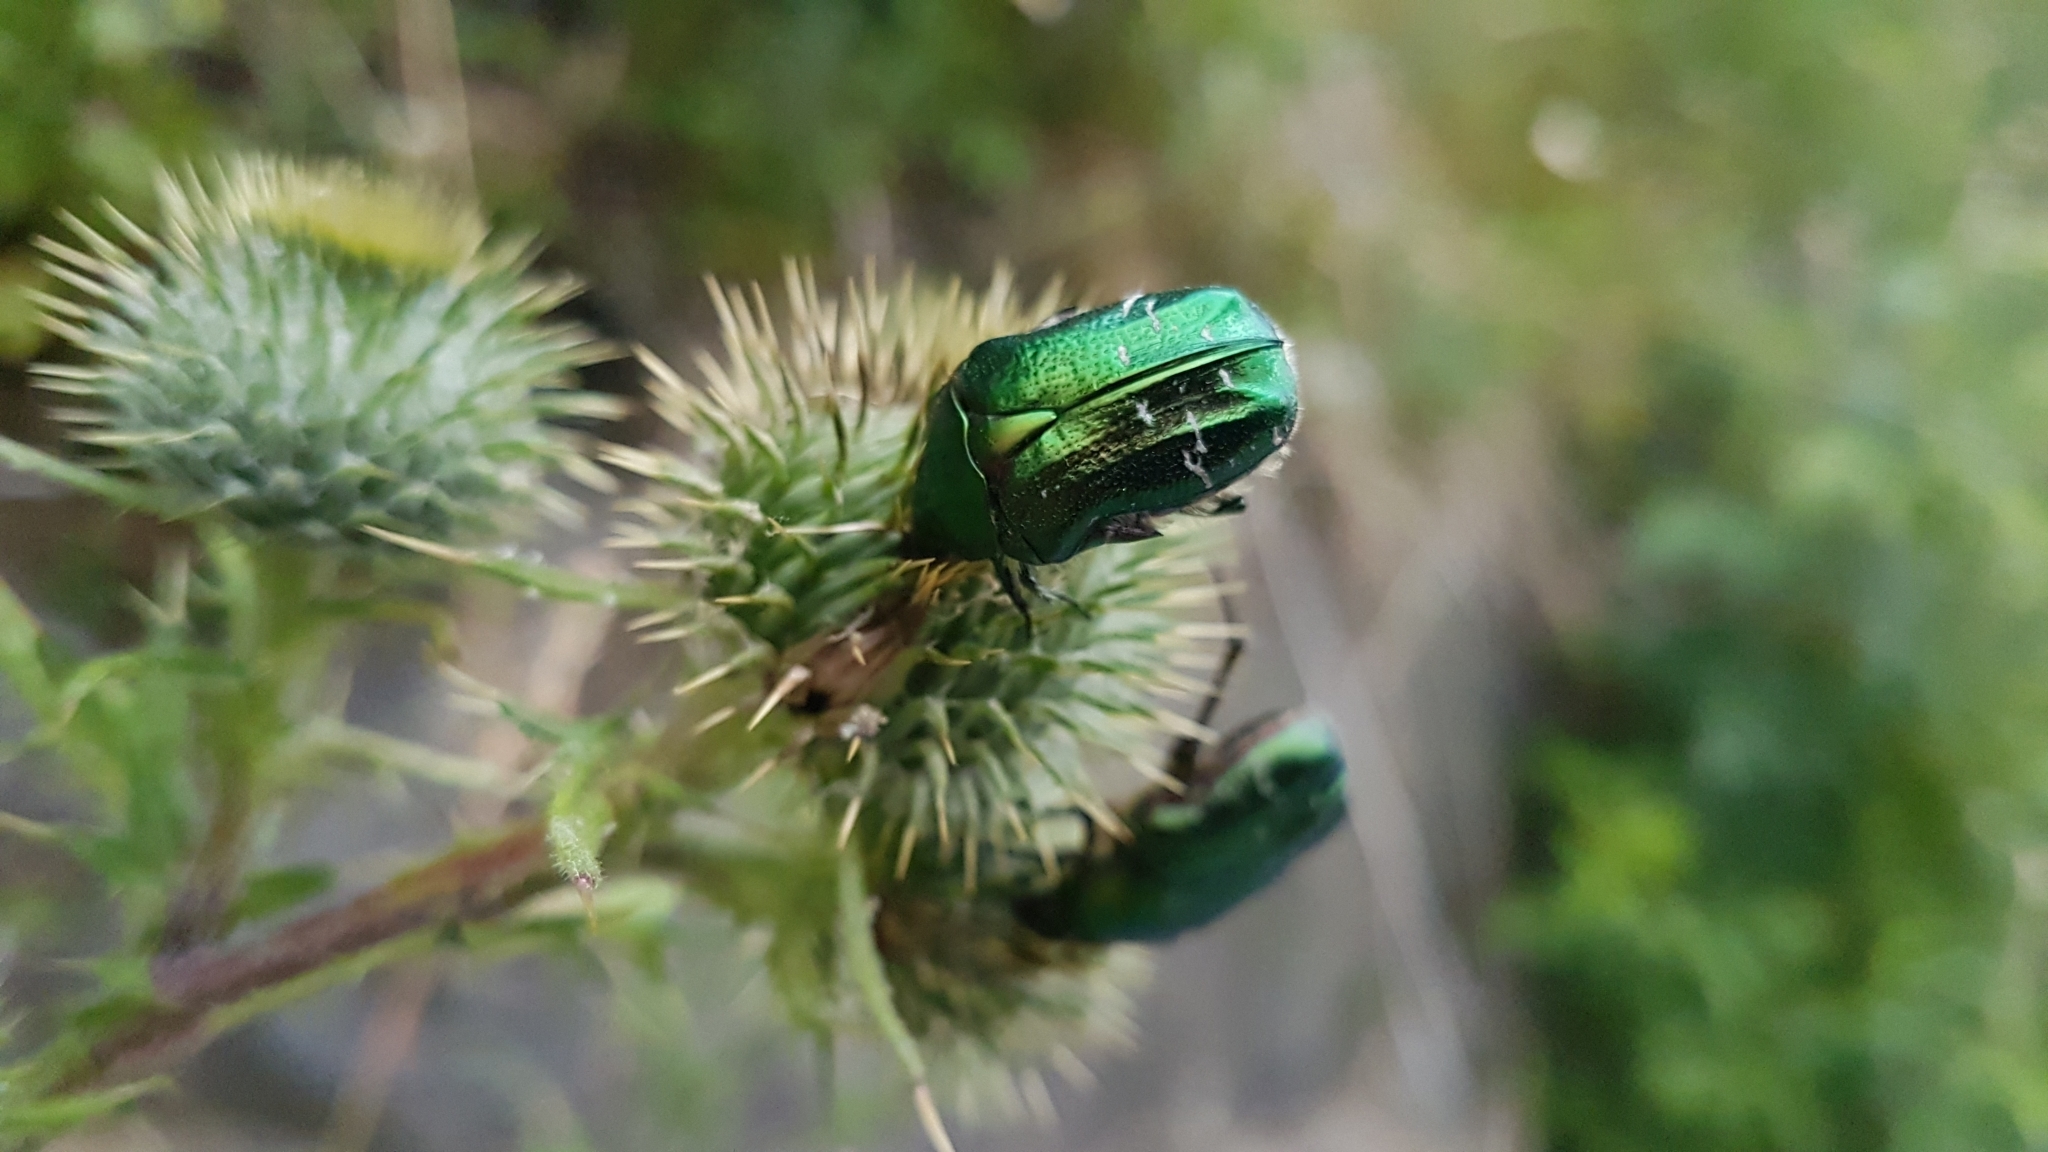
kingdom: Animalia
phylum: Arthropoda
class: Insecta
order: Coleoptera
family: Scarabaeidae
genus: Cetonia
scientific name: Cetonia aurata
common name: Rose chafer
